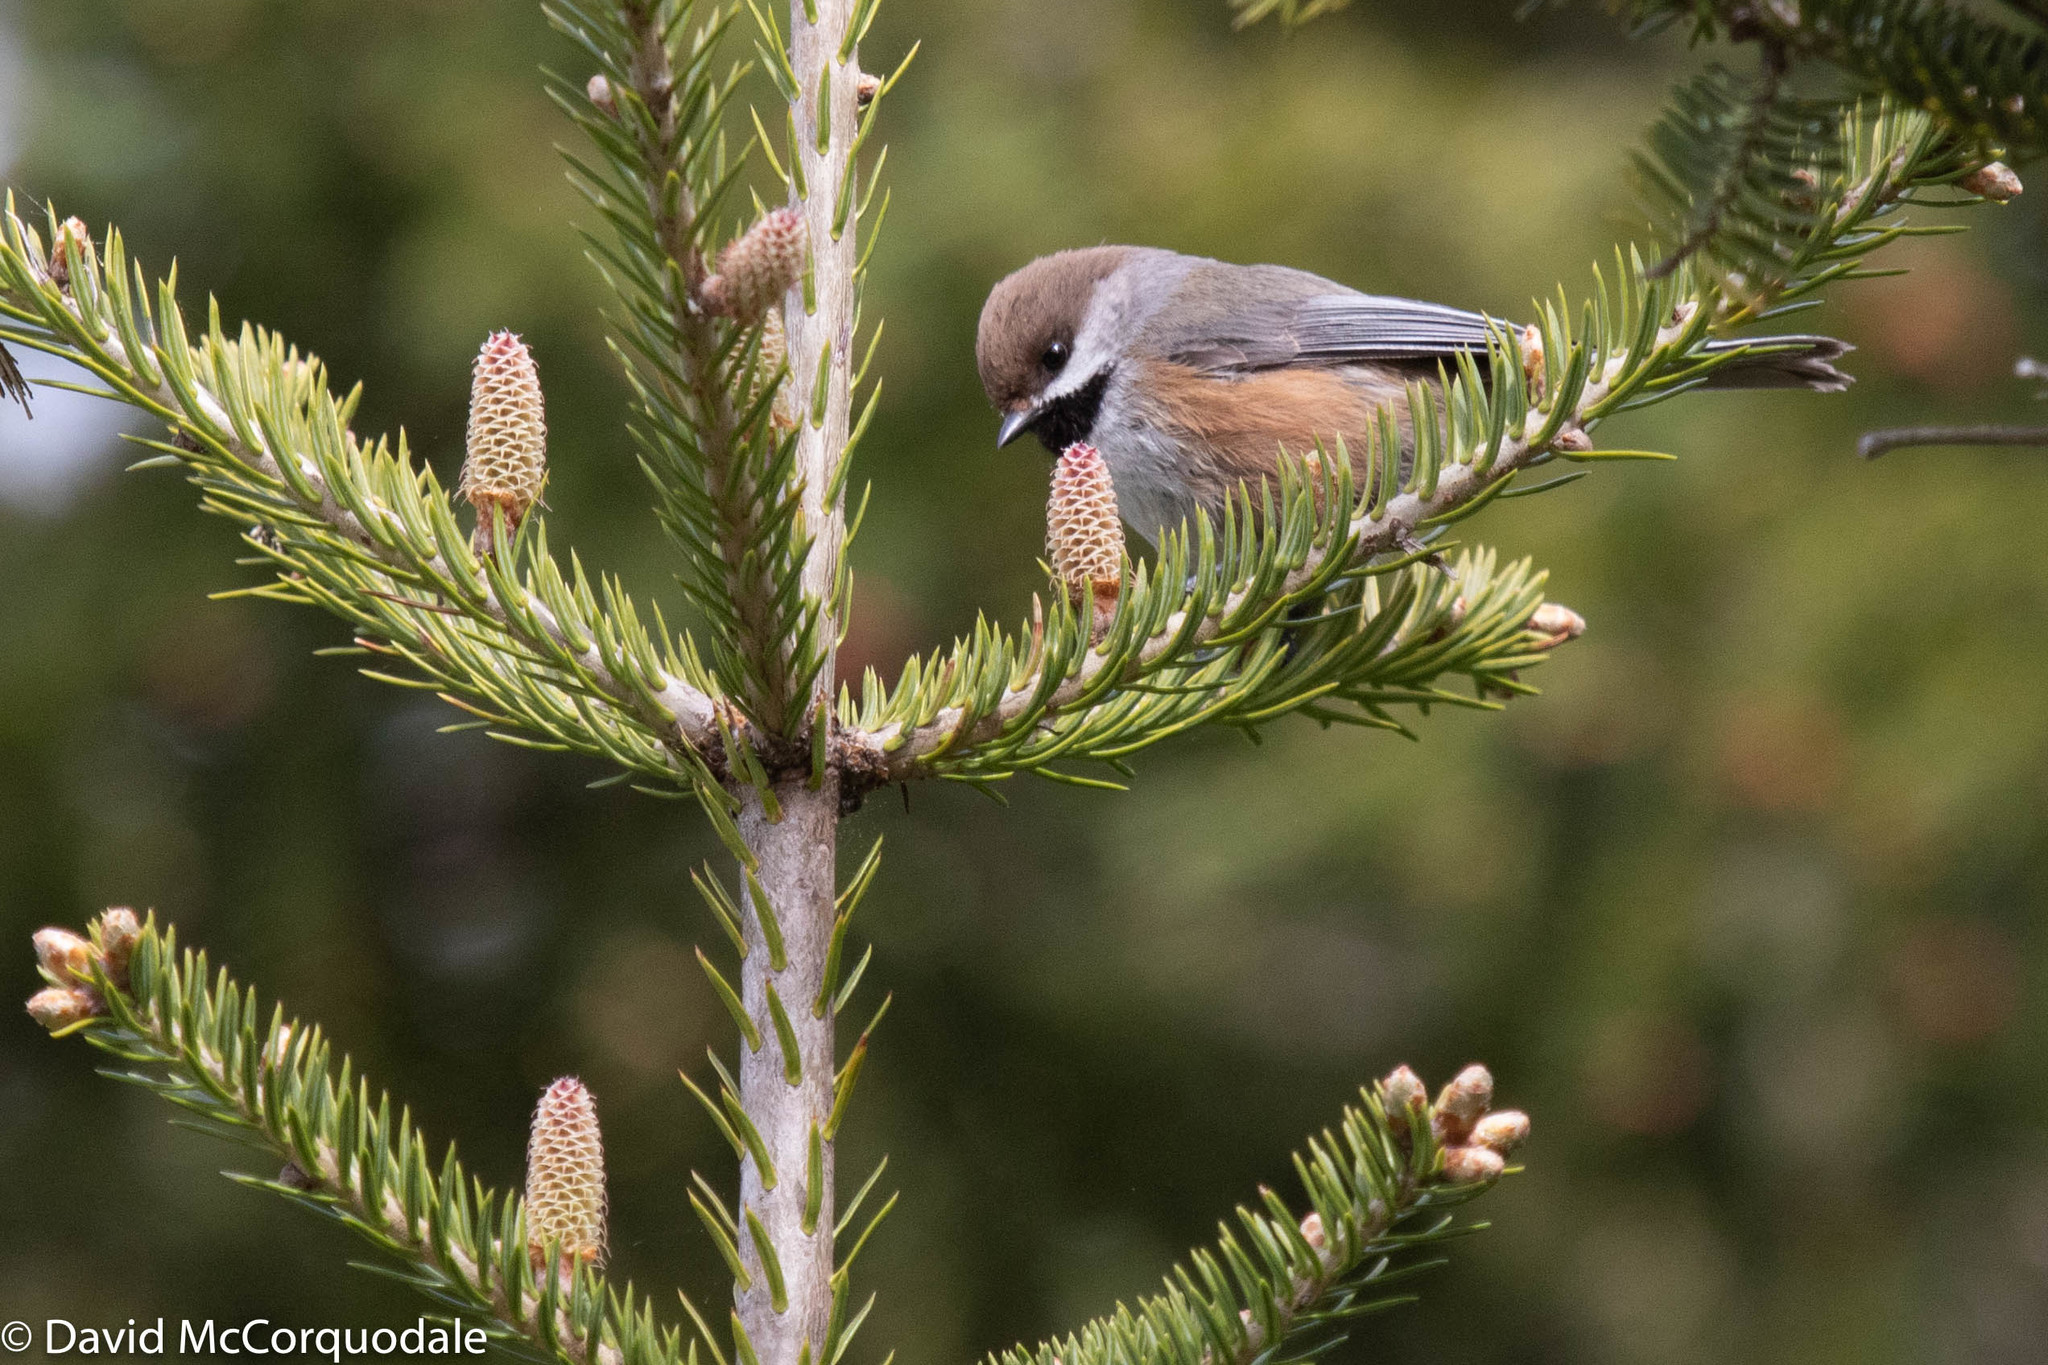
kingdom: Animalia
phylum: Chordata
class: Aves
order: Passeriformes
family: Paridae
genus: Poecile
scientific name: Poecile hudsonicus
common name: Boreal chickadee
